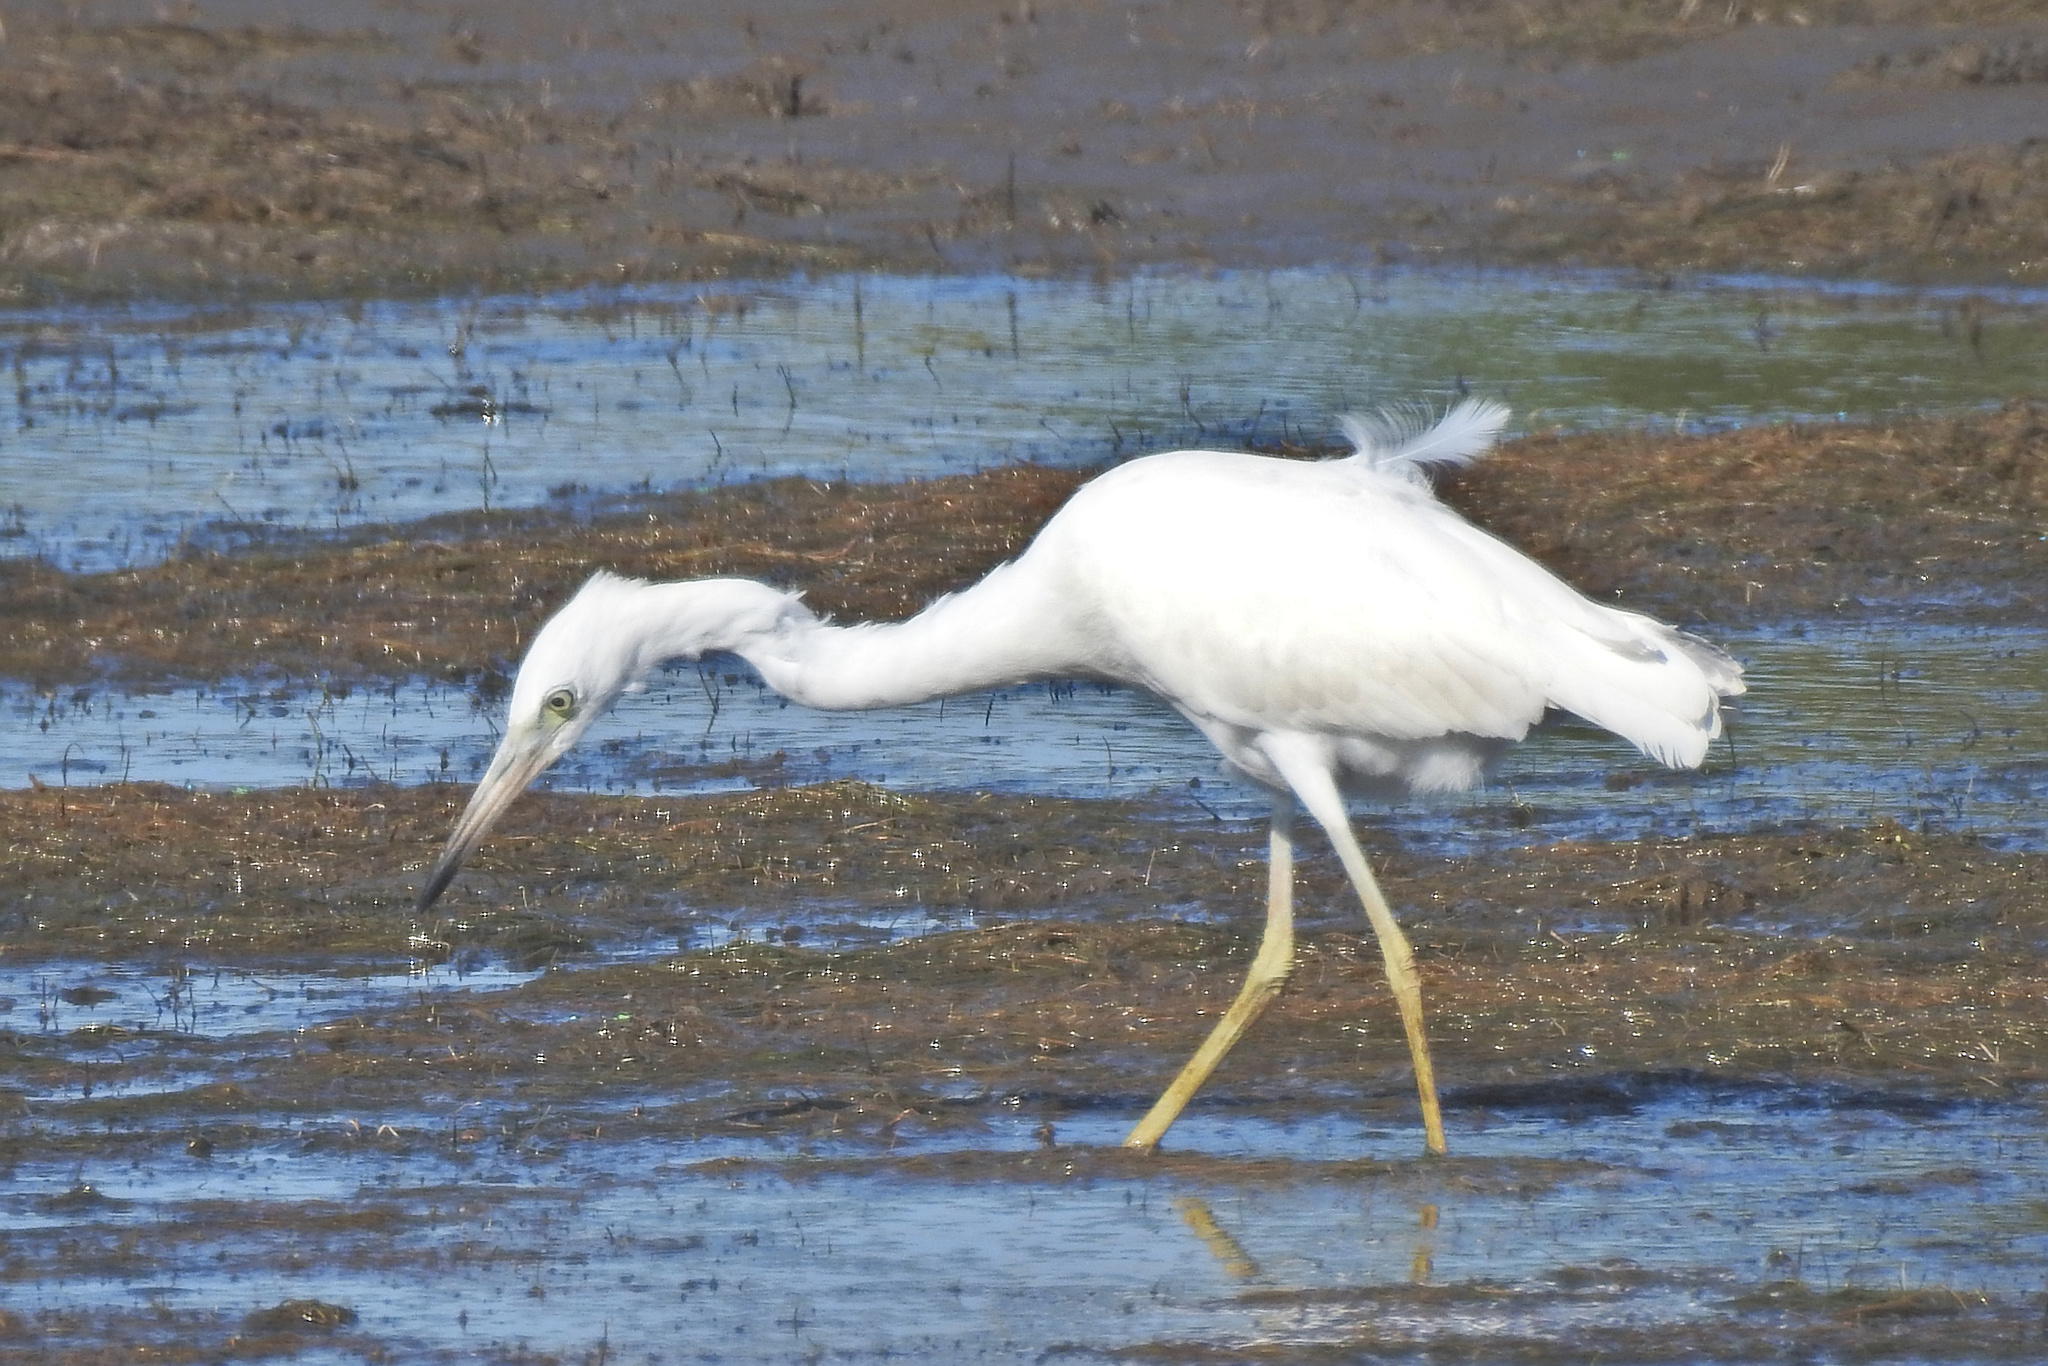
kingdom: Animalia
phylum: Chordata
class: Aves
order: Pelecaniformes
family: Ardeidae
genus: Egretta
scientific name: Egretta caerulea
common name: Little blue heron
